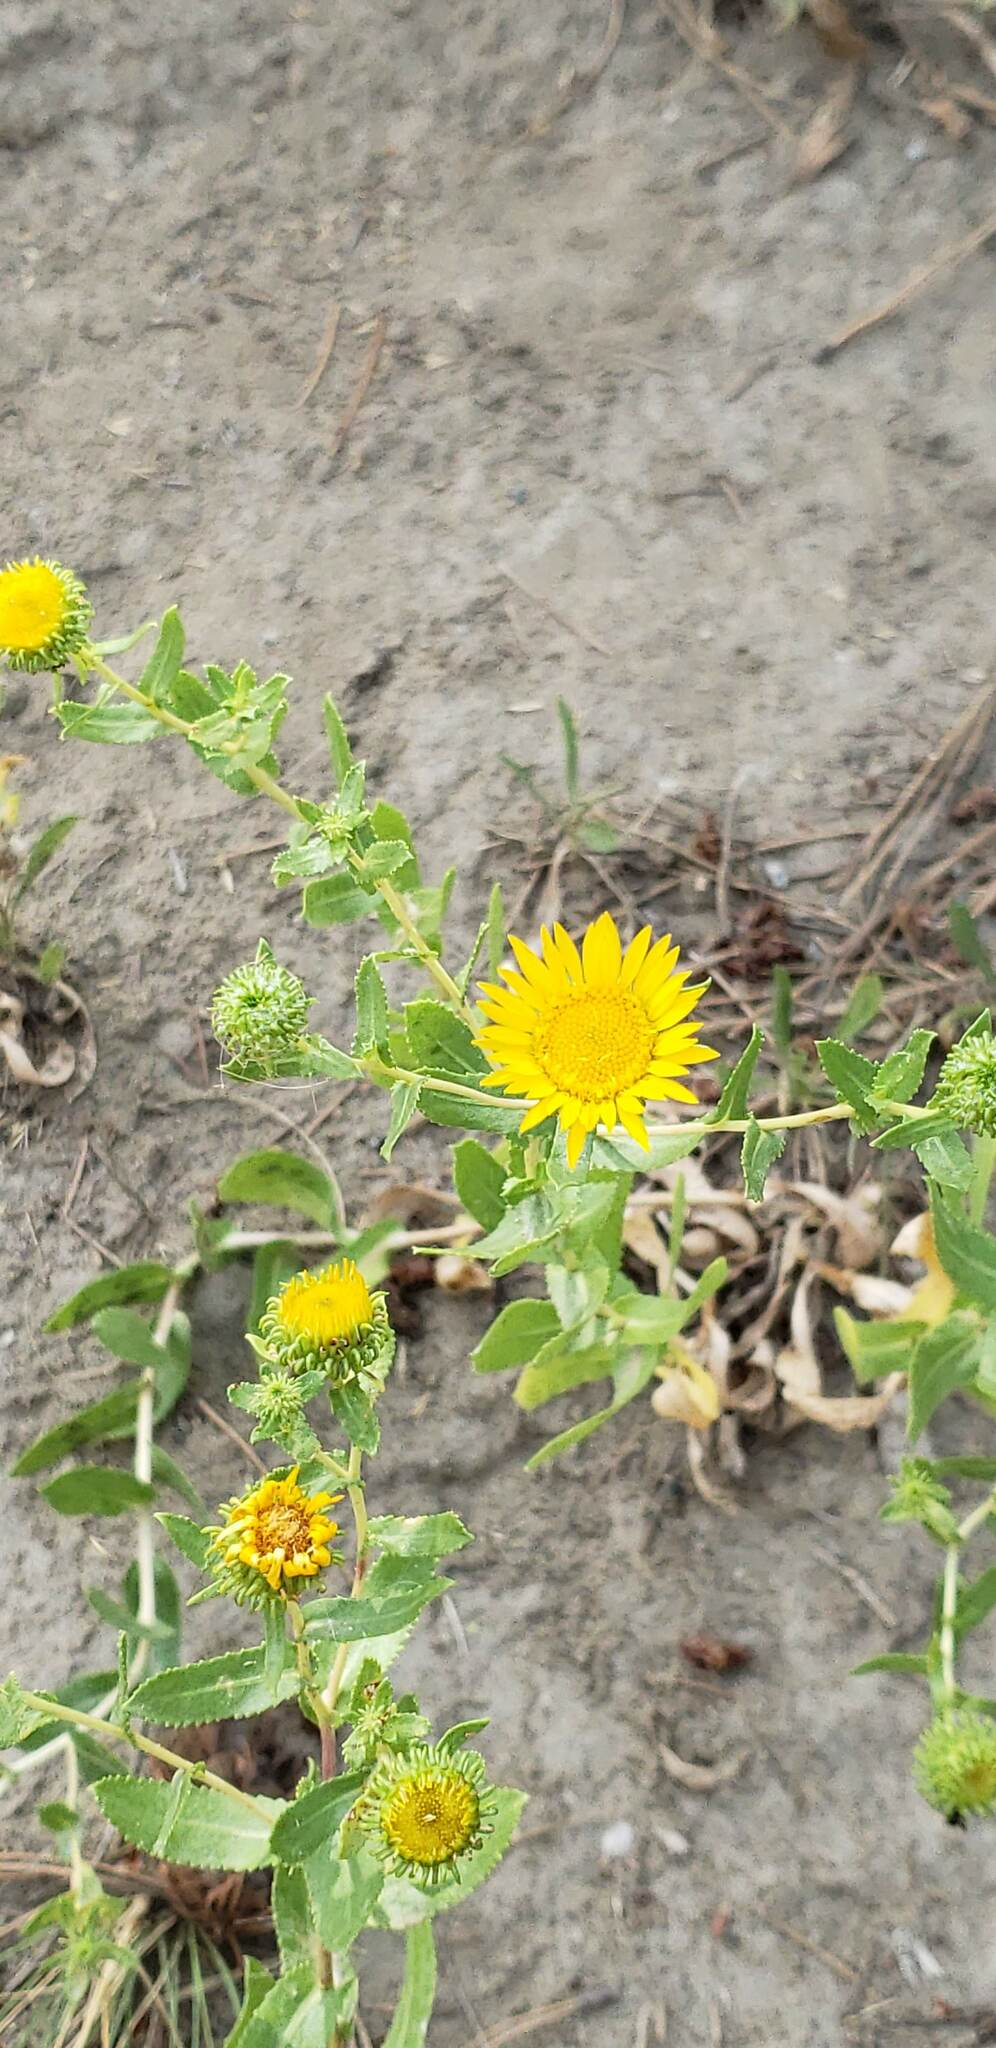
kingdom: Plantae
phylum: Tracheophyta
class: Magnoliopsida
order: Asterales
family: Asteraceae
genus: Grindelia
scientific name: Grindelia squarrosa
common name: Curly-cup gumweed
